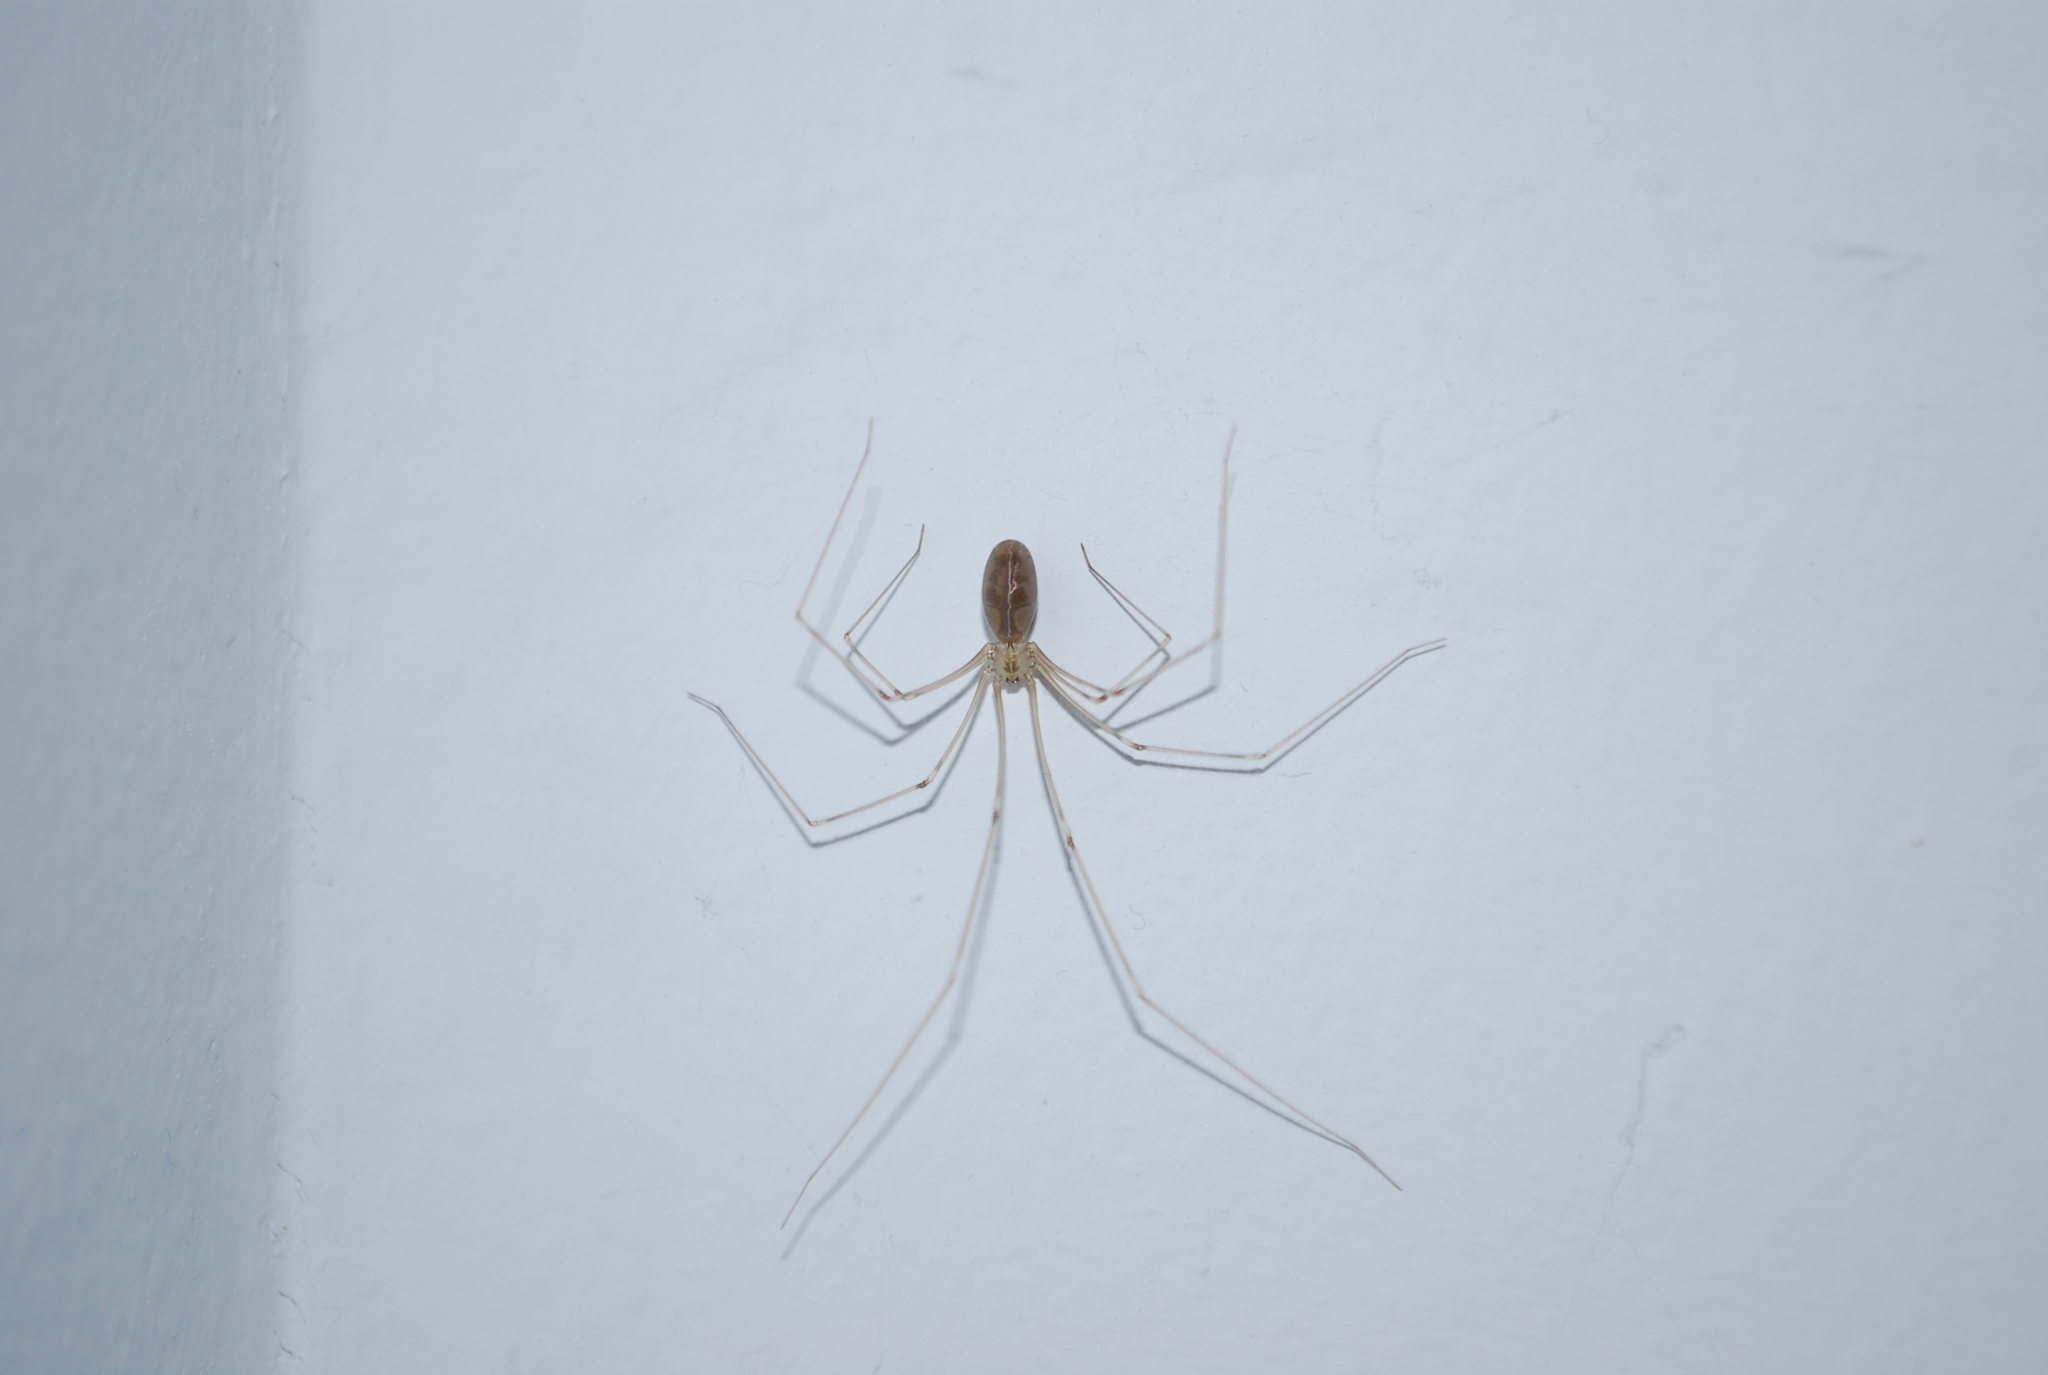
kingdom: Animalia
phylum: Arthropoda
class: Arachnida
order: Araneae
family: Pholcidae
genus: Pholcus
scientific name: Pholcus phalangioides
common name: Longbodied cellar spider
